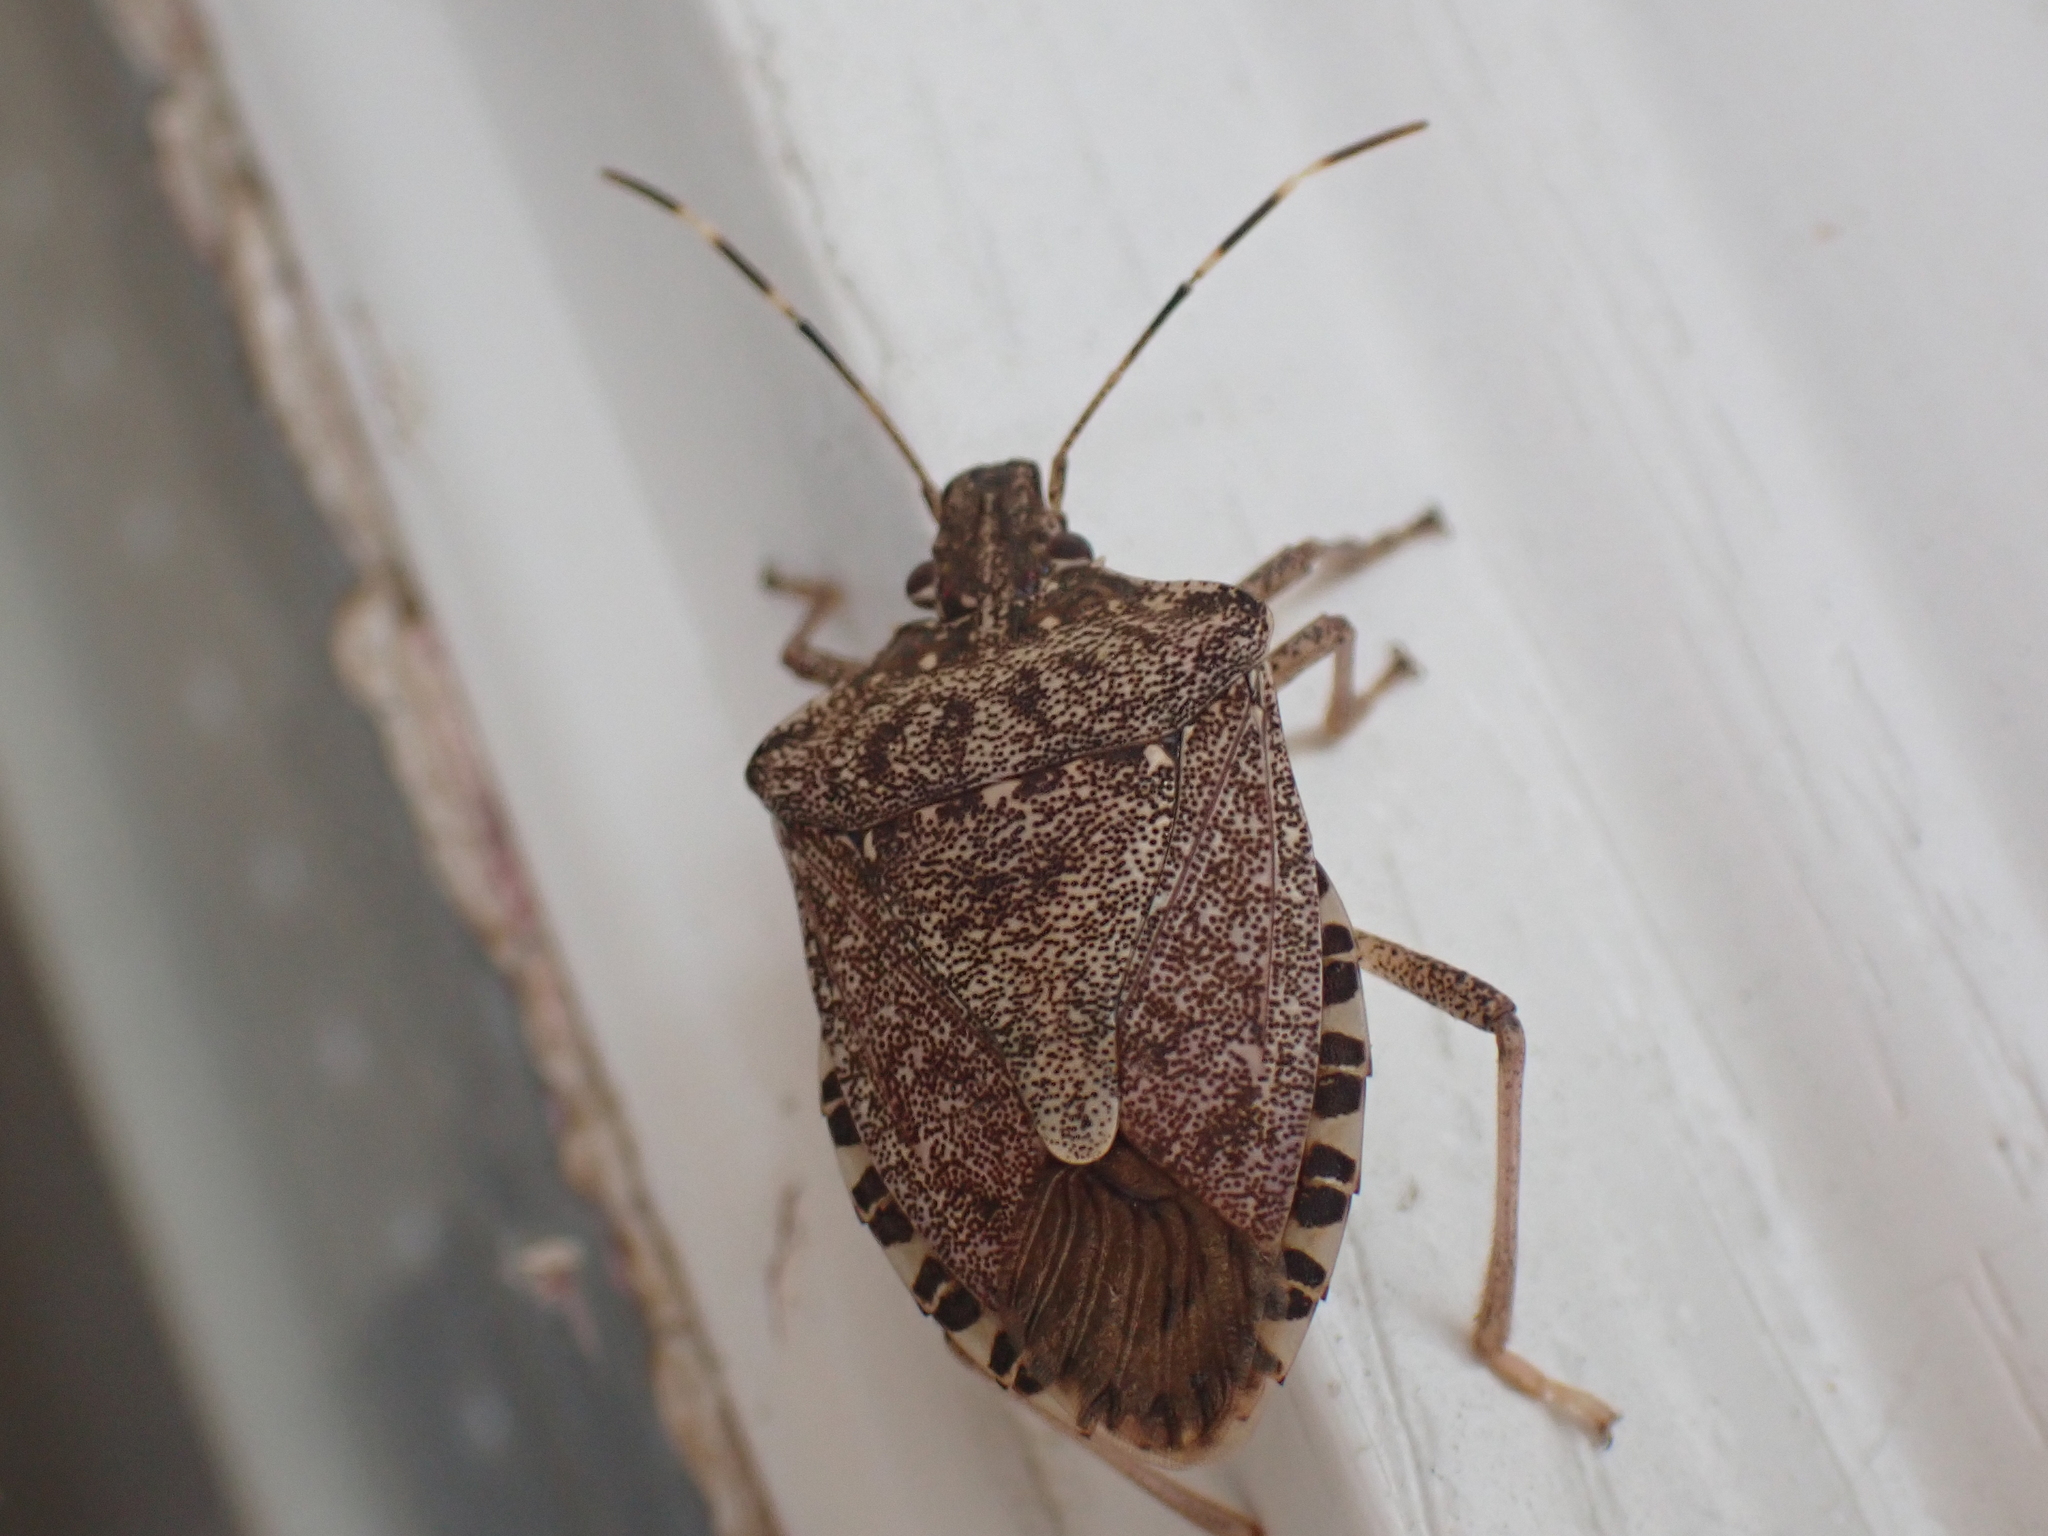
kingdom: Animalia
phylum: Arthropoda
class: Insecta
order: Hemiptera
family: Pentatomidae
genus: Halyomorpha
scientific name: Halyomorpha halys
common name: Brown marmorated stink bug
